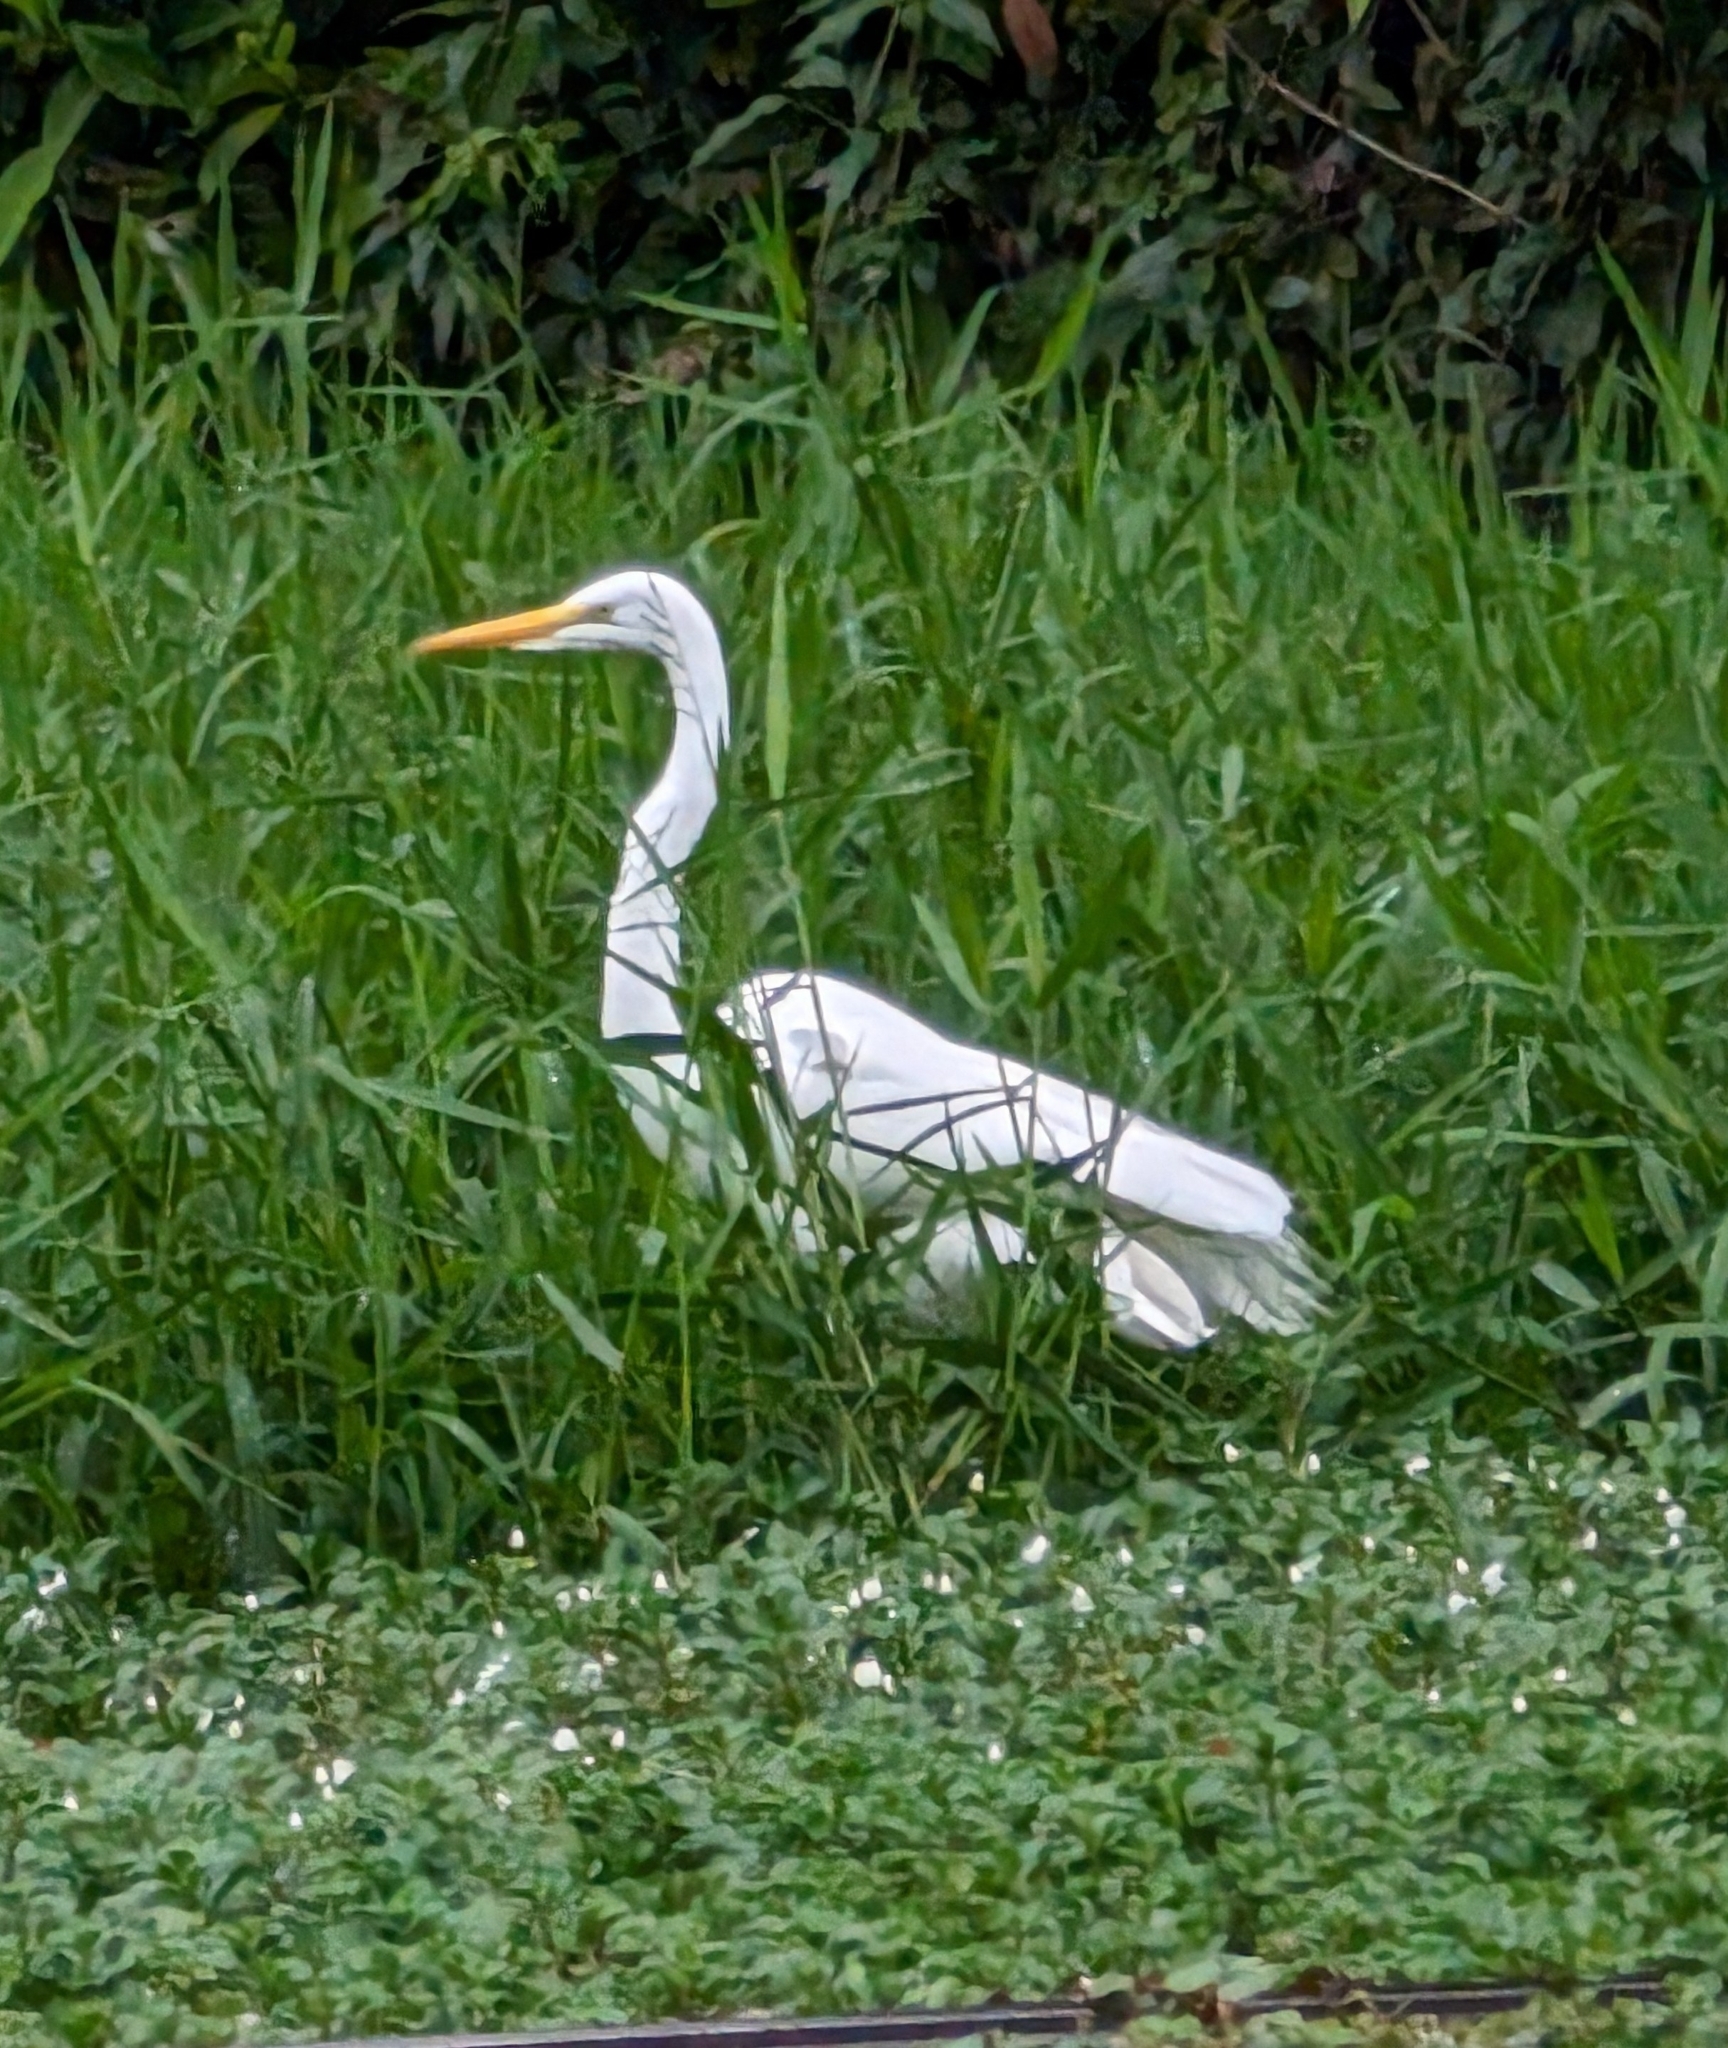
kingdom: Animalia
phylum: Chordata
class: Aves
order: Pelecaniformes
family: Ardeidae
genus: Ardea
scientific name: Ardea alba
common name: Great egret
